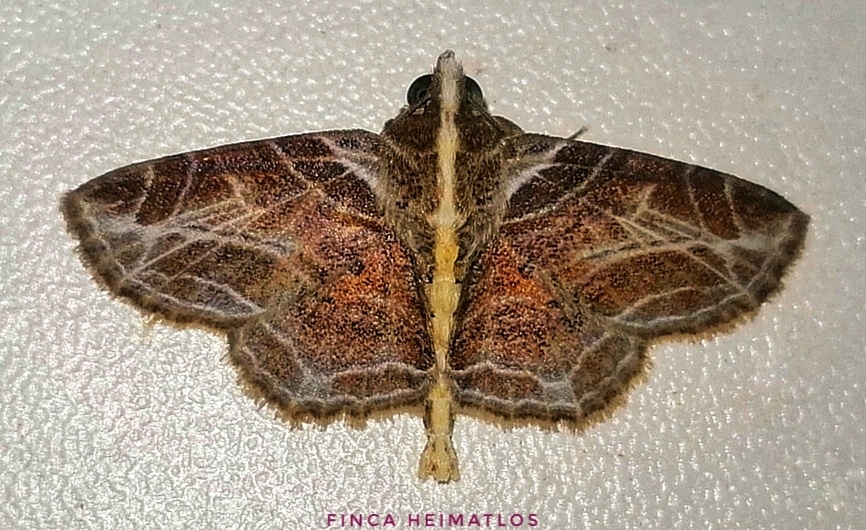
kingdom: Animalia
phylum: Arthropoda
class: Insecta
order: Lepidoptera
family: Erebidae
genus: Dolichosomastis
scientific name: Dolichosomastis leucogrammica
